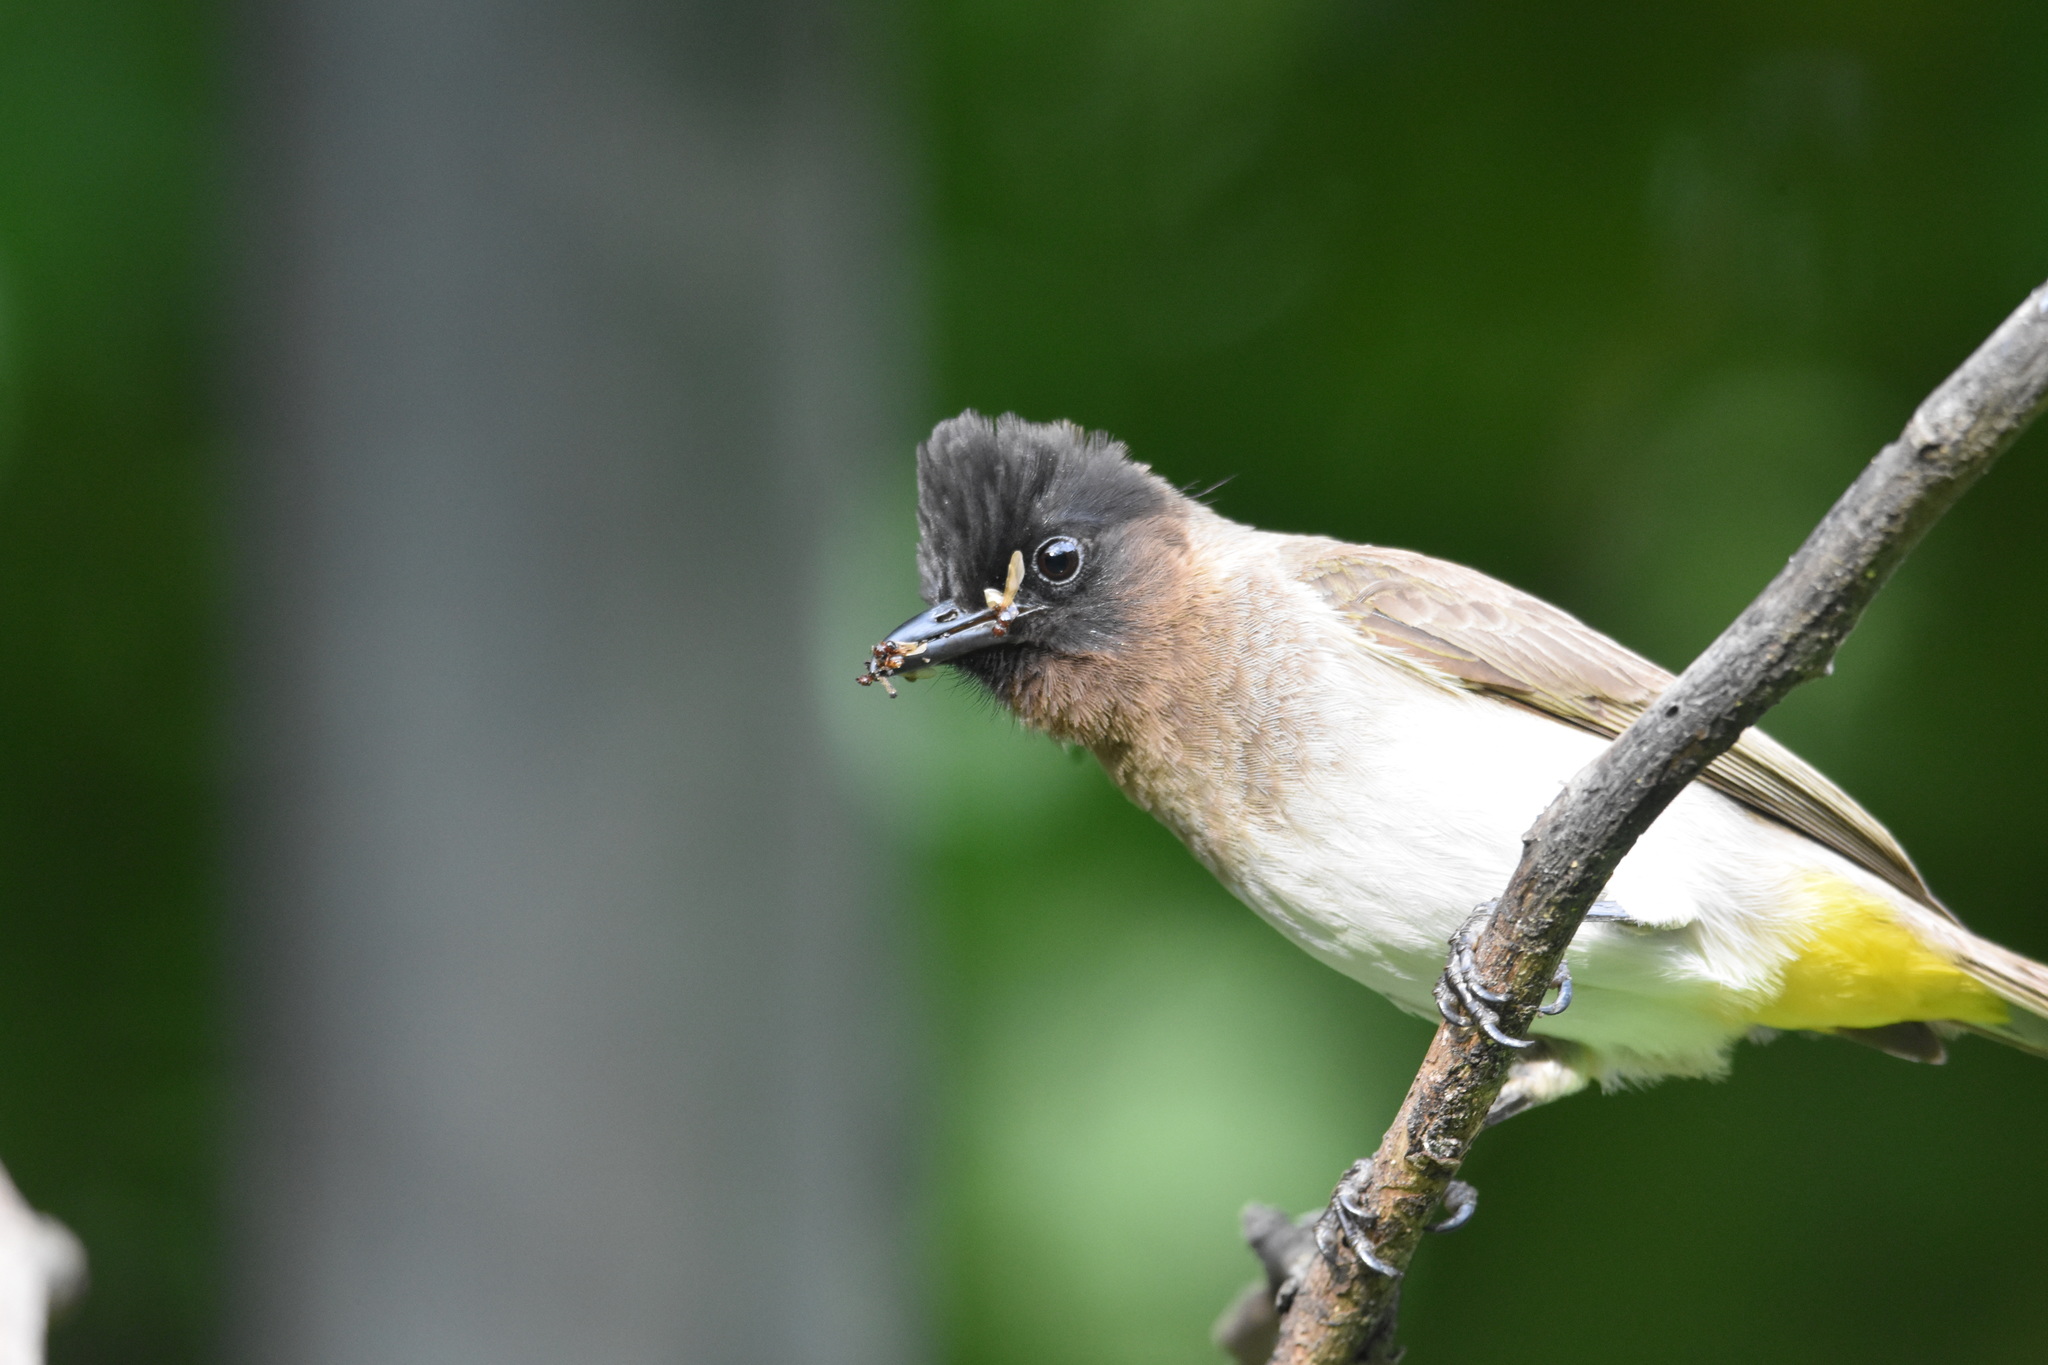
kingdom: Animalia
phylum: Chordata
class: Aves
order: Passeriformes
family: Pycnonotidae
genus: Pycnonotus
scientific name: Pycnonotus barbatus
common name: Common bulbul
